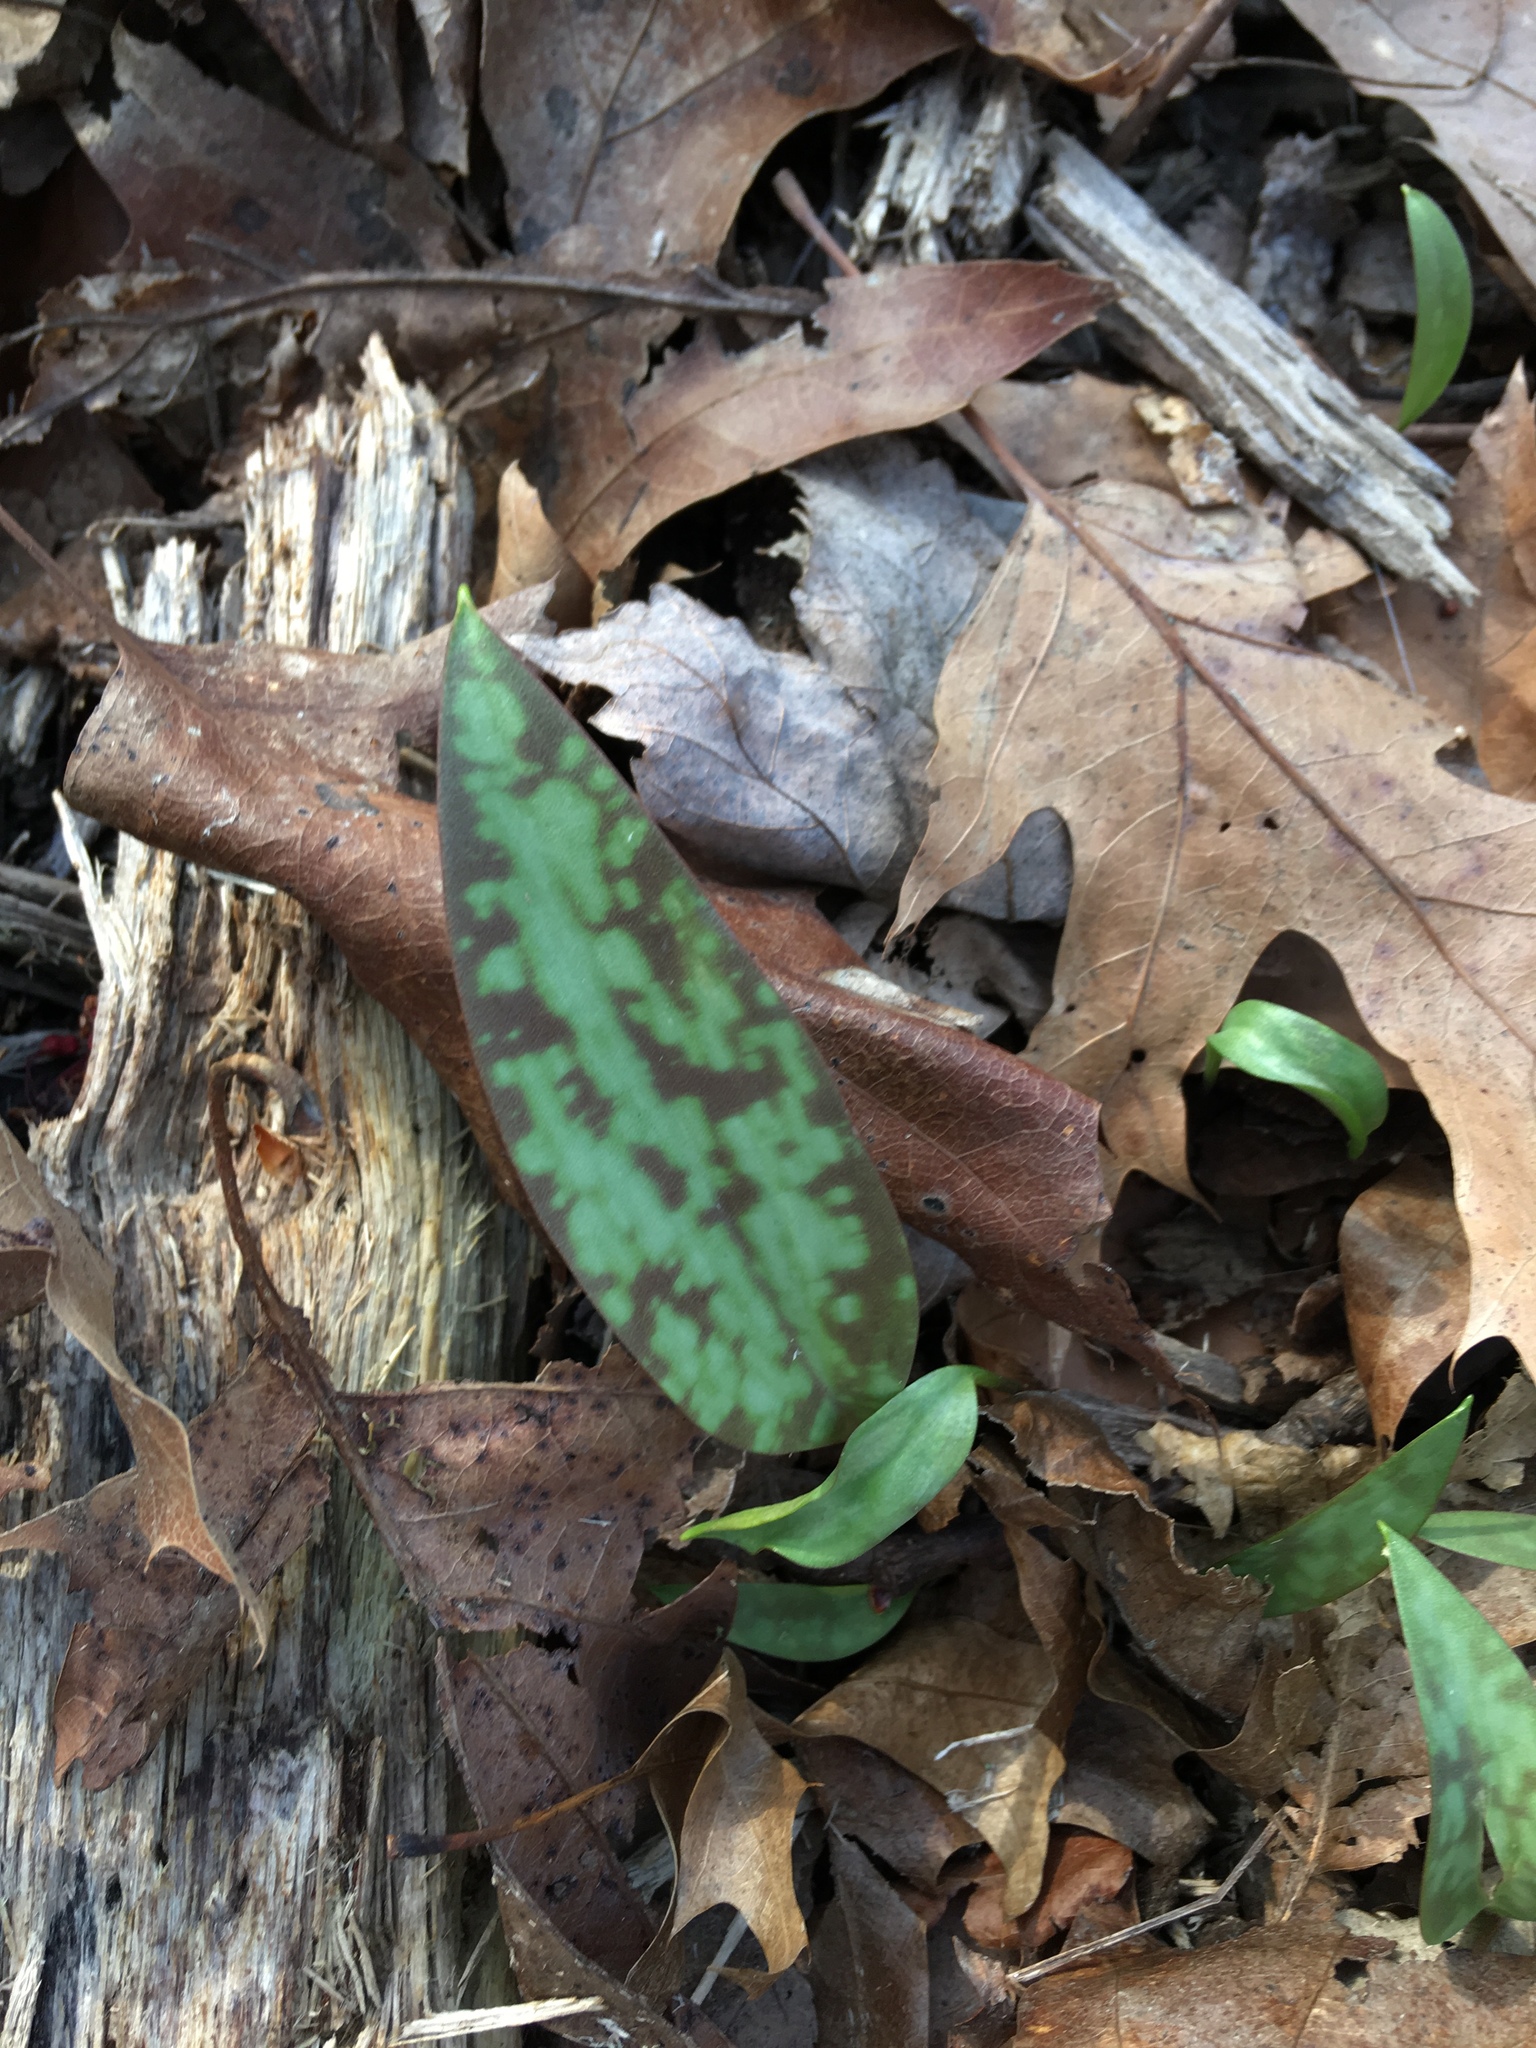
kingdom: Plantae
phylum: Tracheophyta
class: Liliopsida
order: Liliales
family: Liliaceae
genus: Erythronium
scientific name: Erythronium americanum
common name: Yellow adder's-tongue
